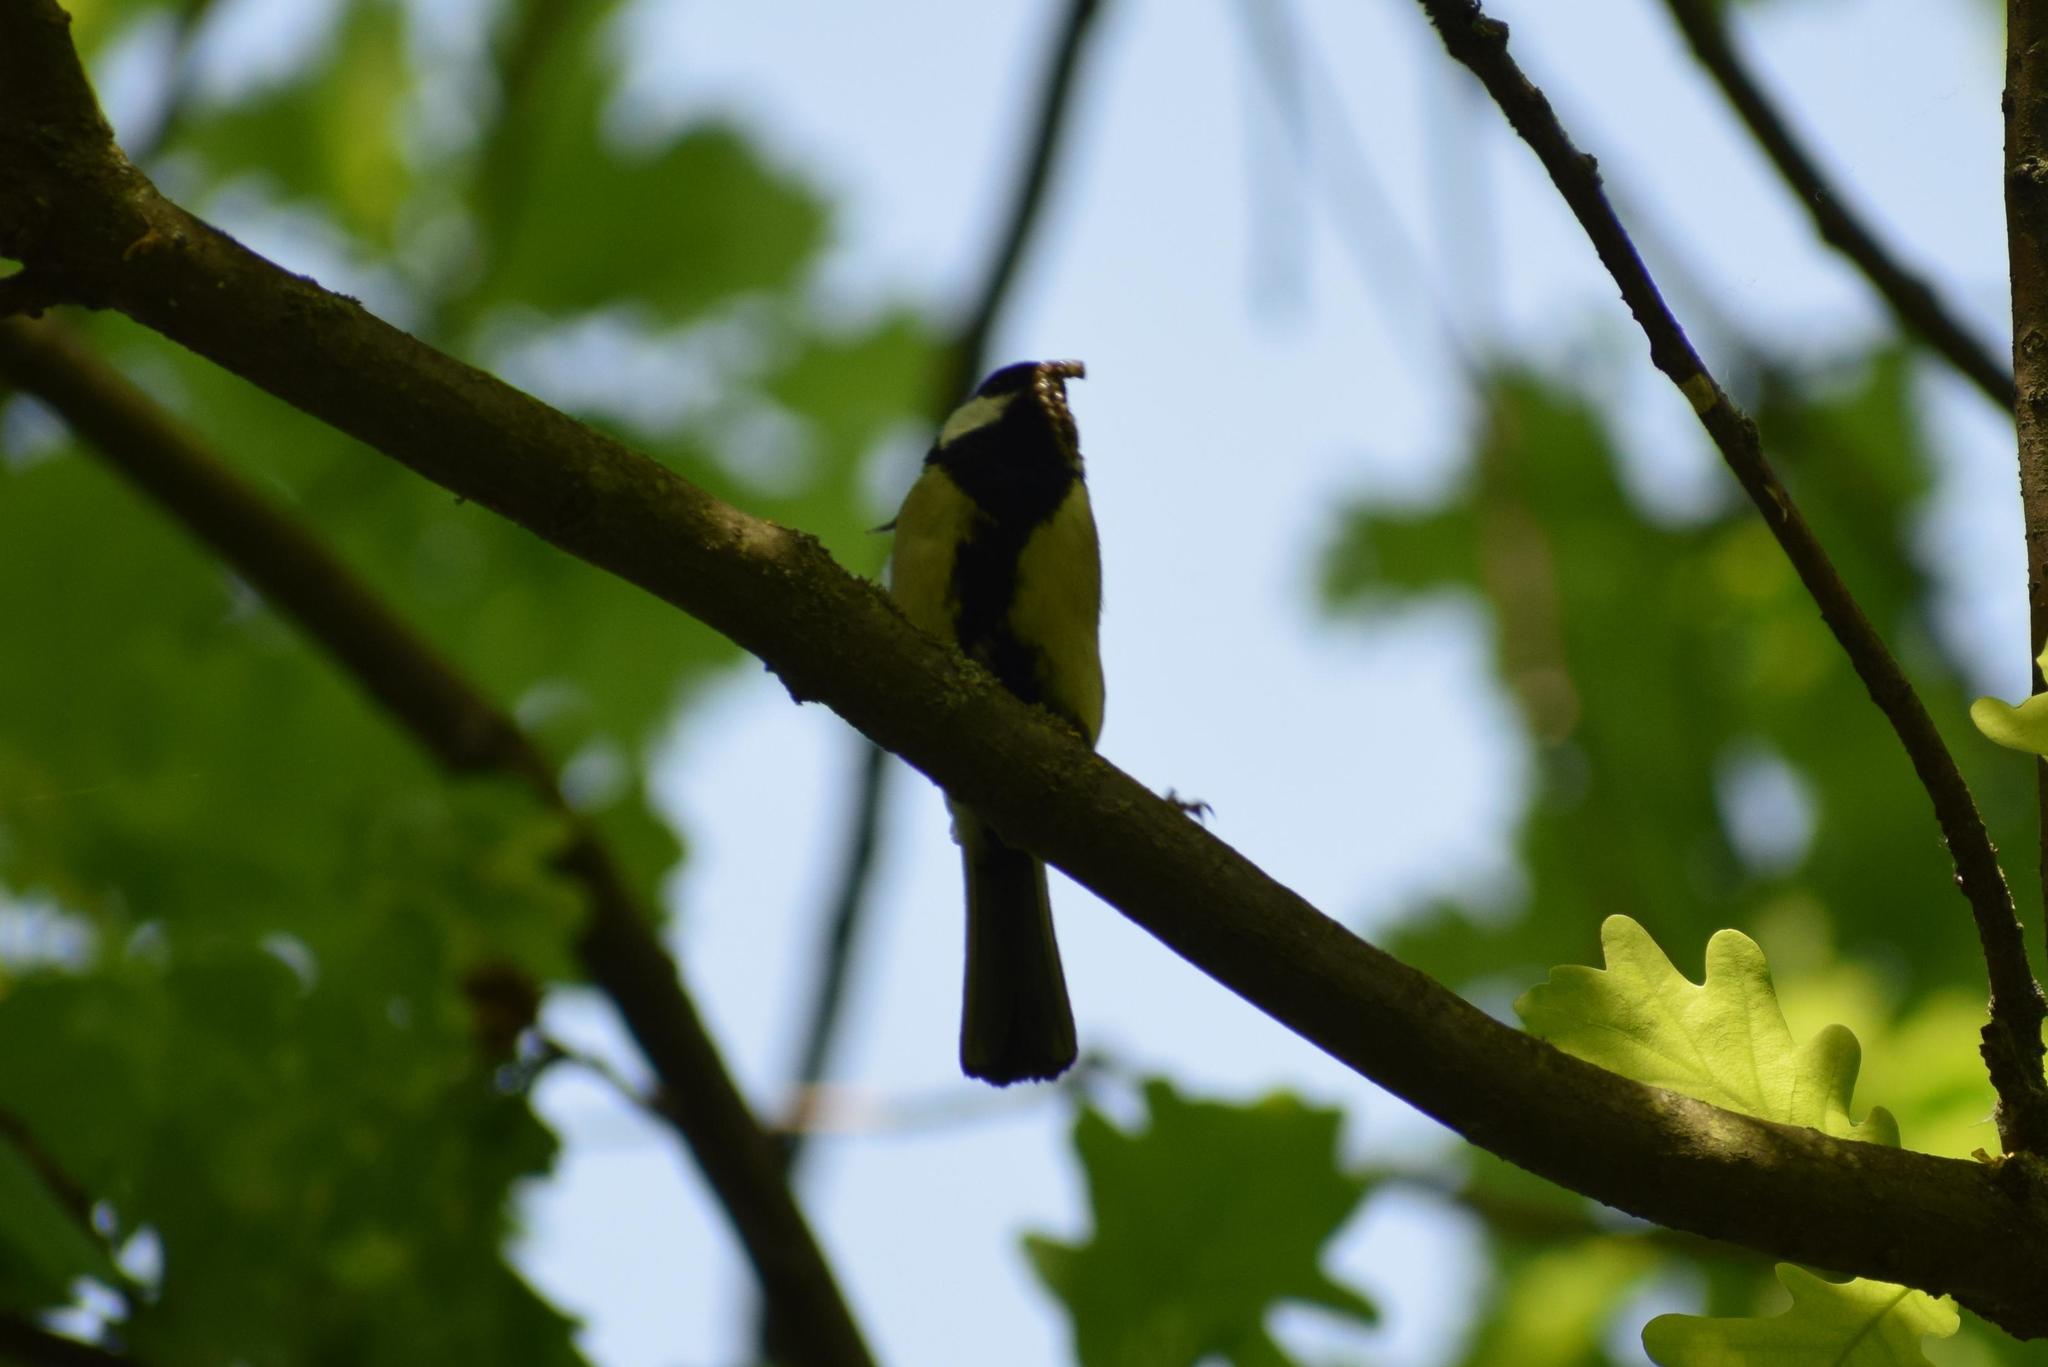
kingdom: Animalia
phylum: Chordata
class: Aves
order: Passeriformes
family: Paridae
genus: Parus
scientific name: Parus major
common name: Great tit
